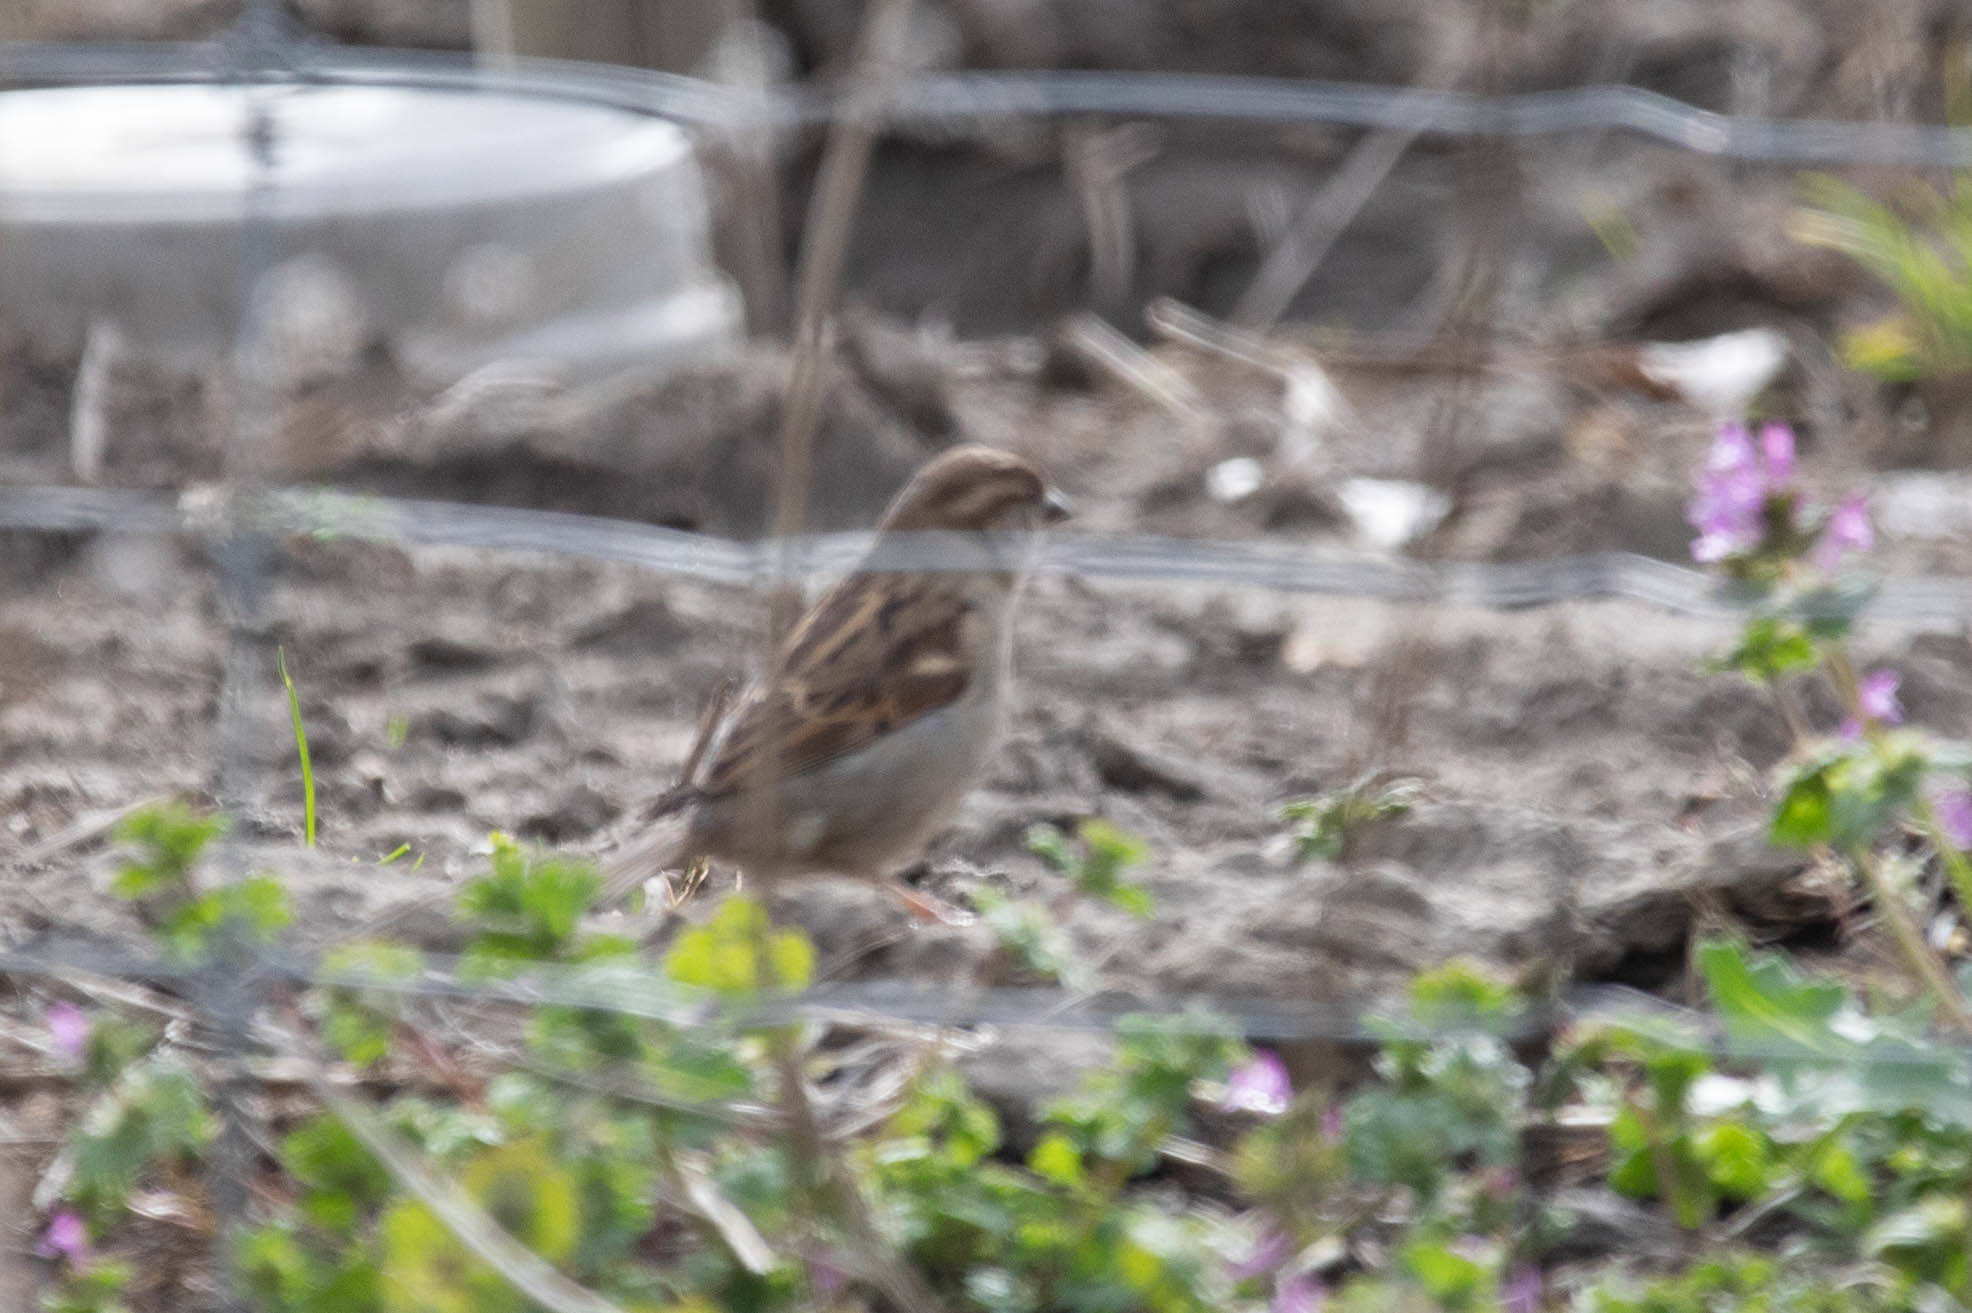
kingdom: Animalia
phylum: Chordata
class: Aves
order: Passeriformes
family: Passeridae
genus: Passer
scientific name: Passer domesticus
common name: House sparrow
